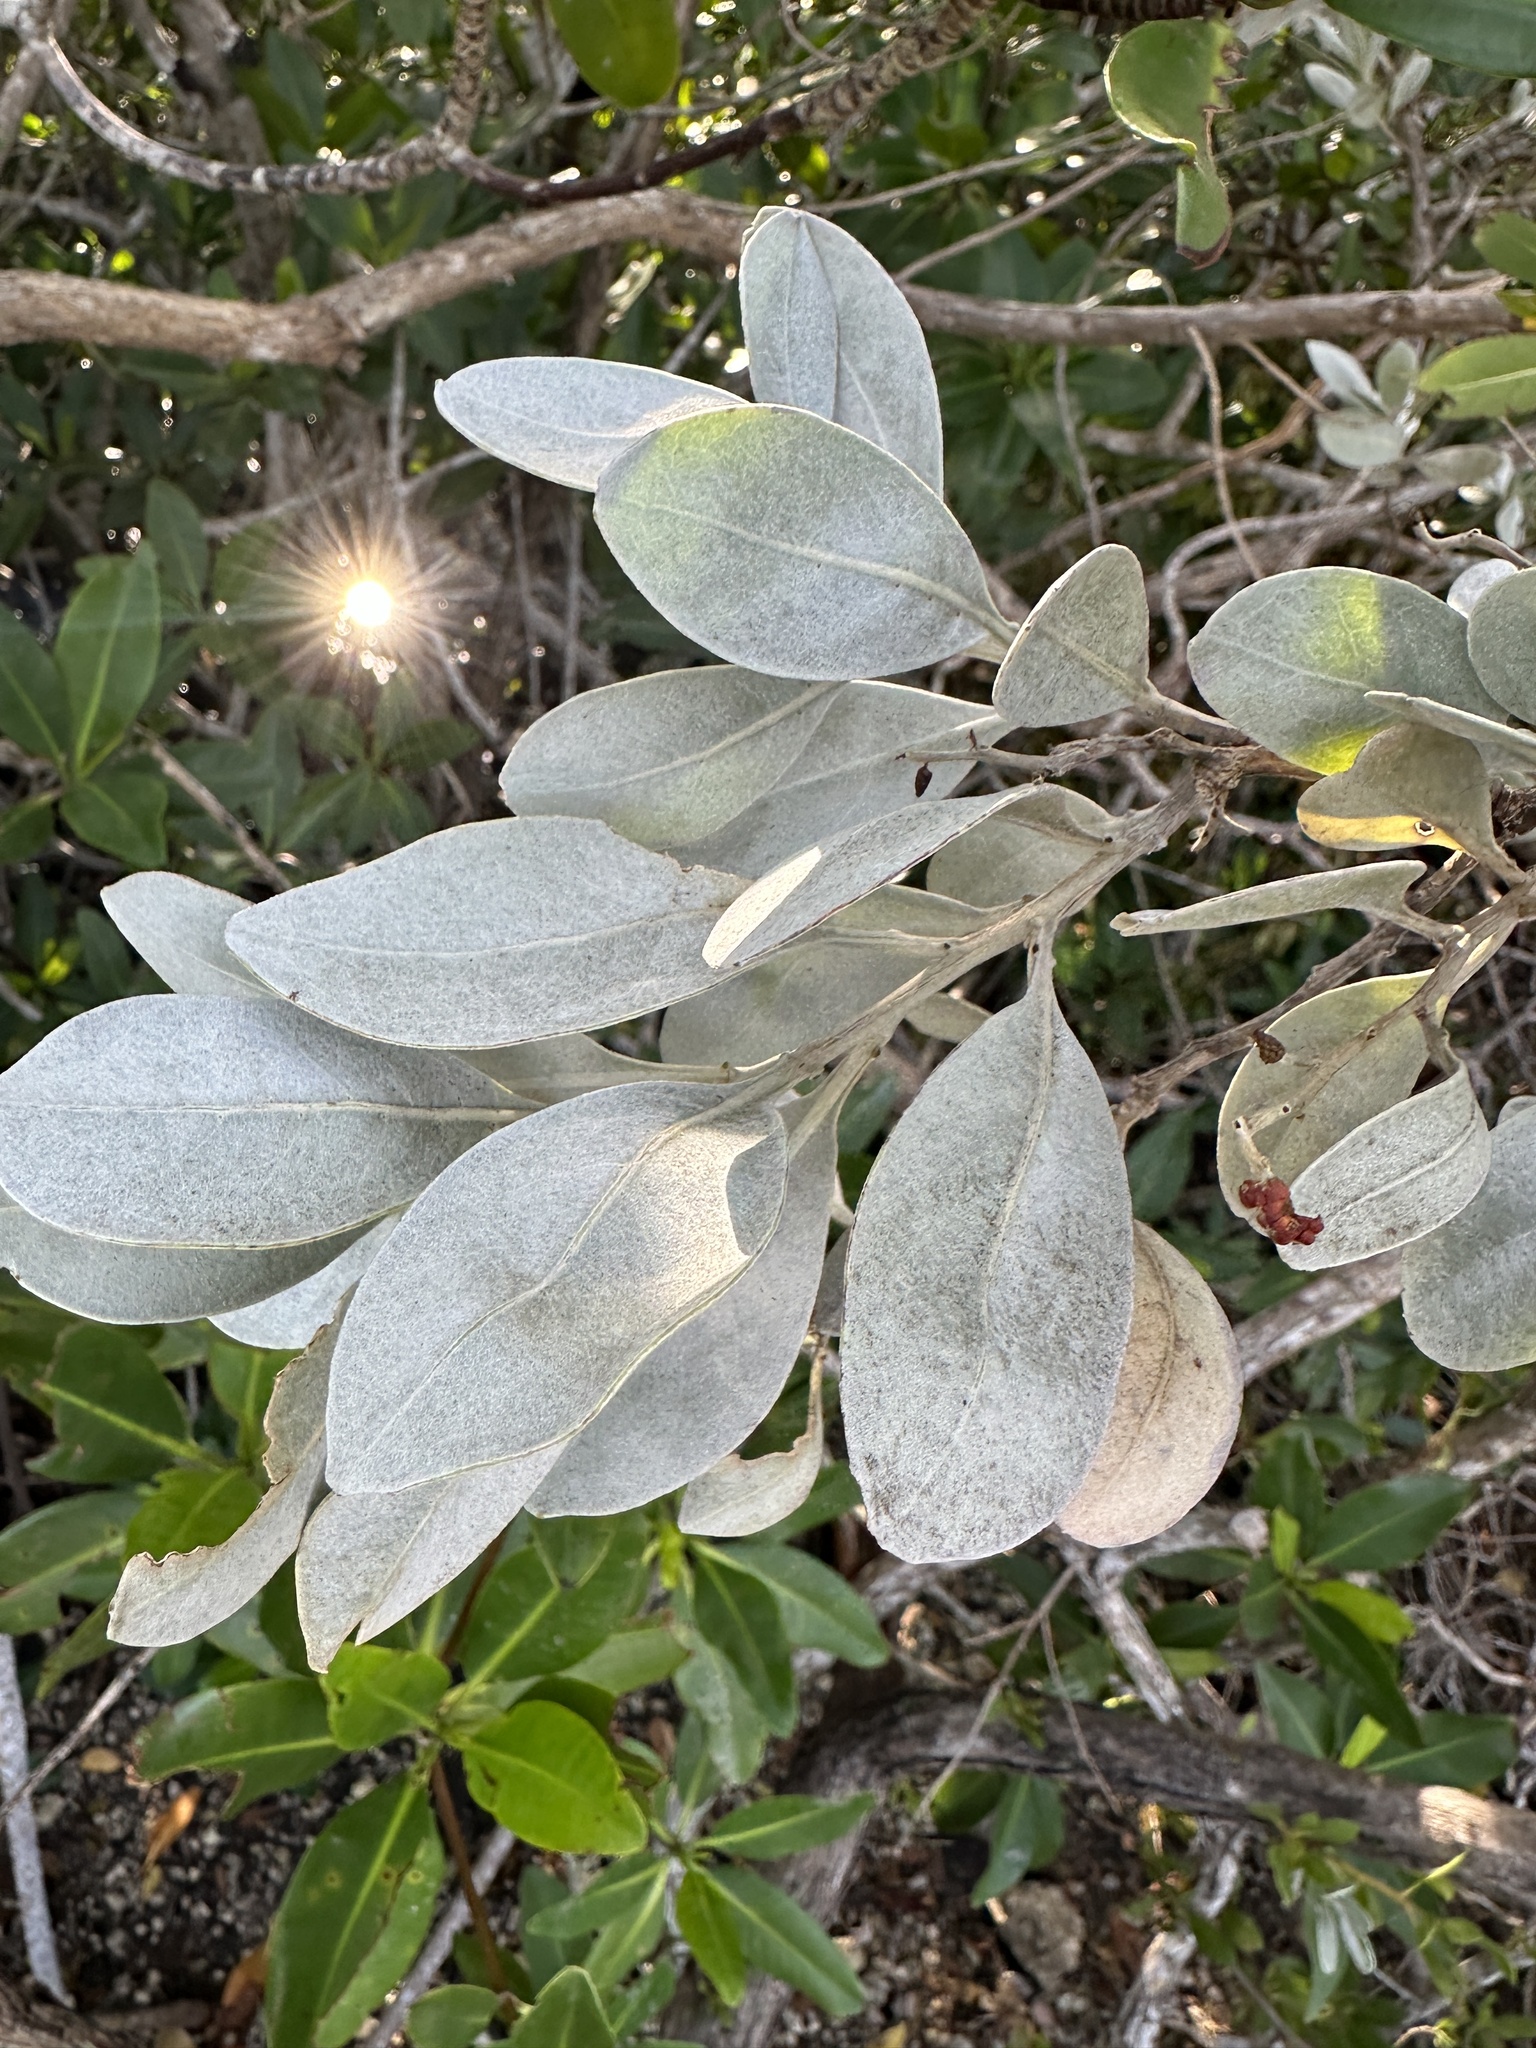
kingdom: Plantae
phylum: Tracheophyta
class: Magnoliopsida
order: Myrtales
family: Combretaceae
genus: Conocarpus
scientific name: Conocarpus erectus
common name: Button mangrove
